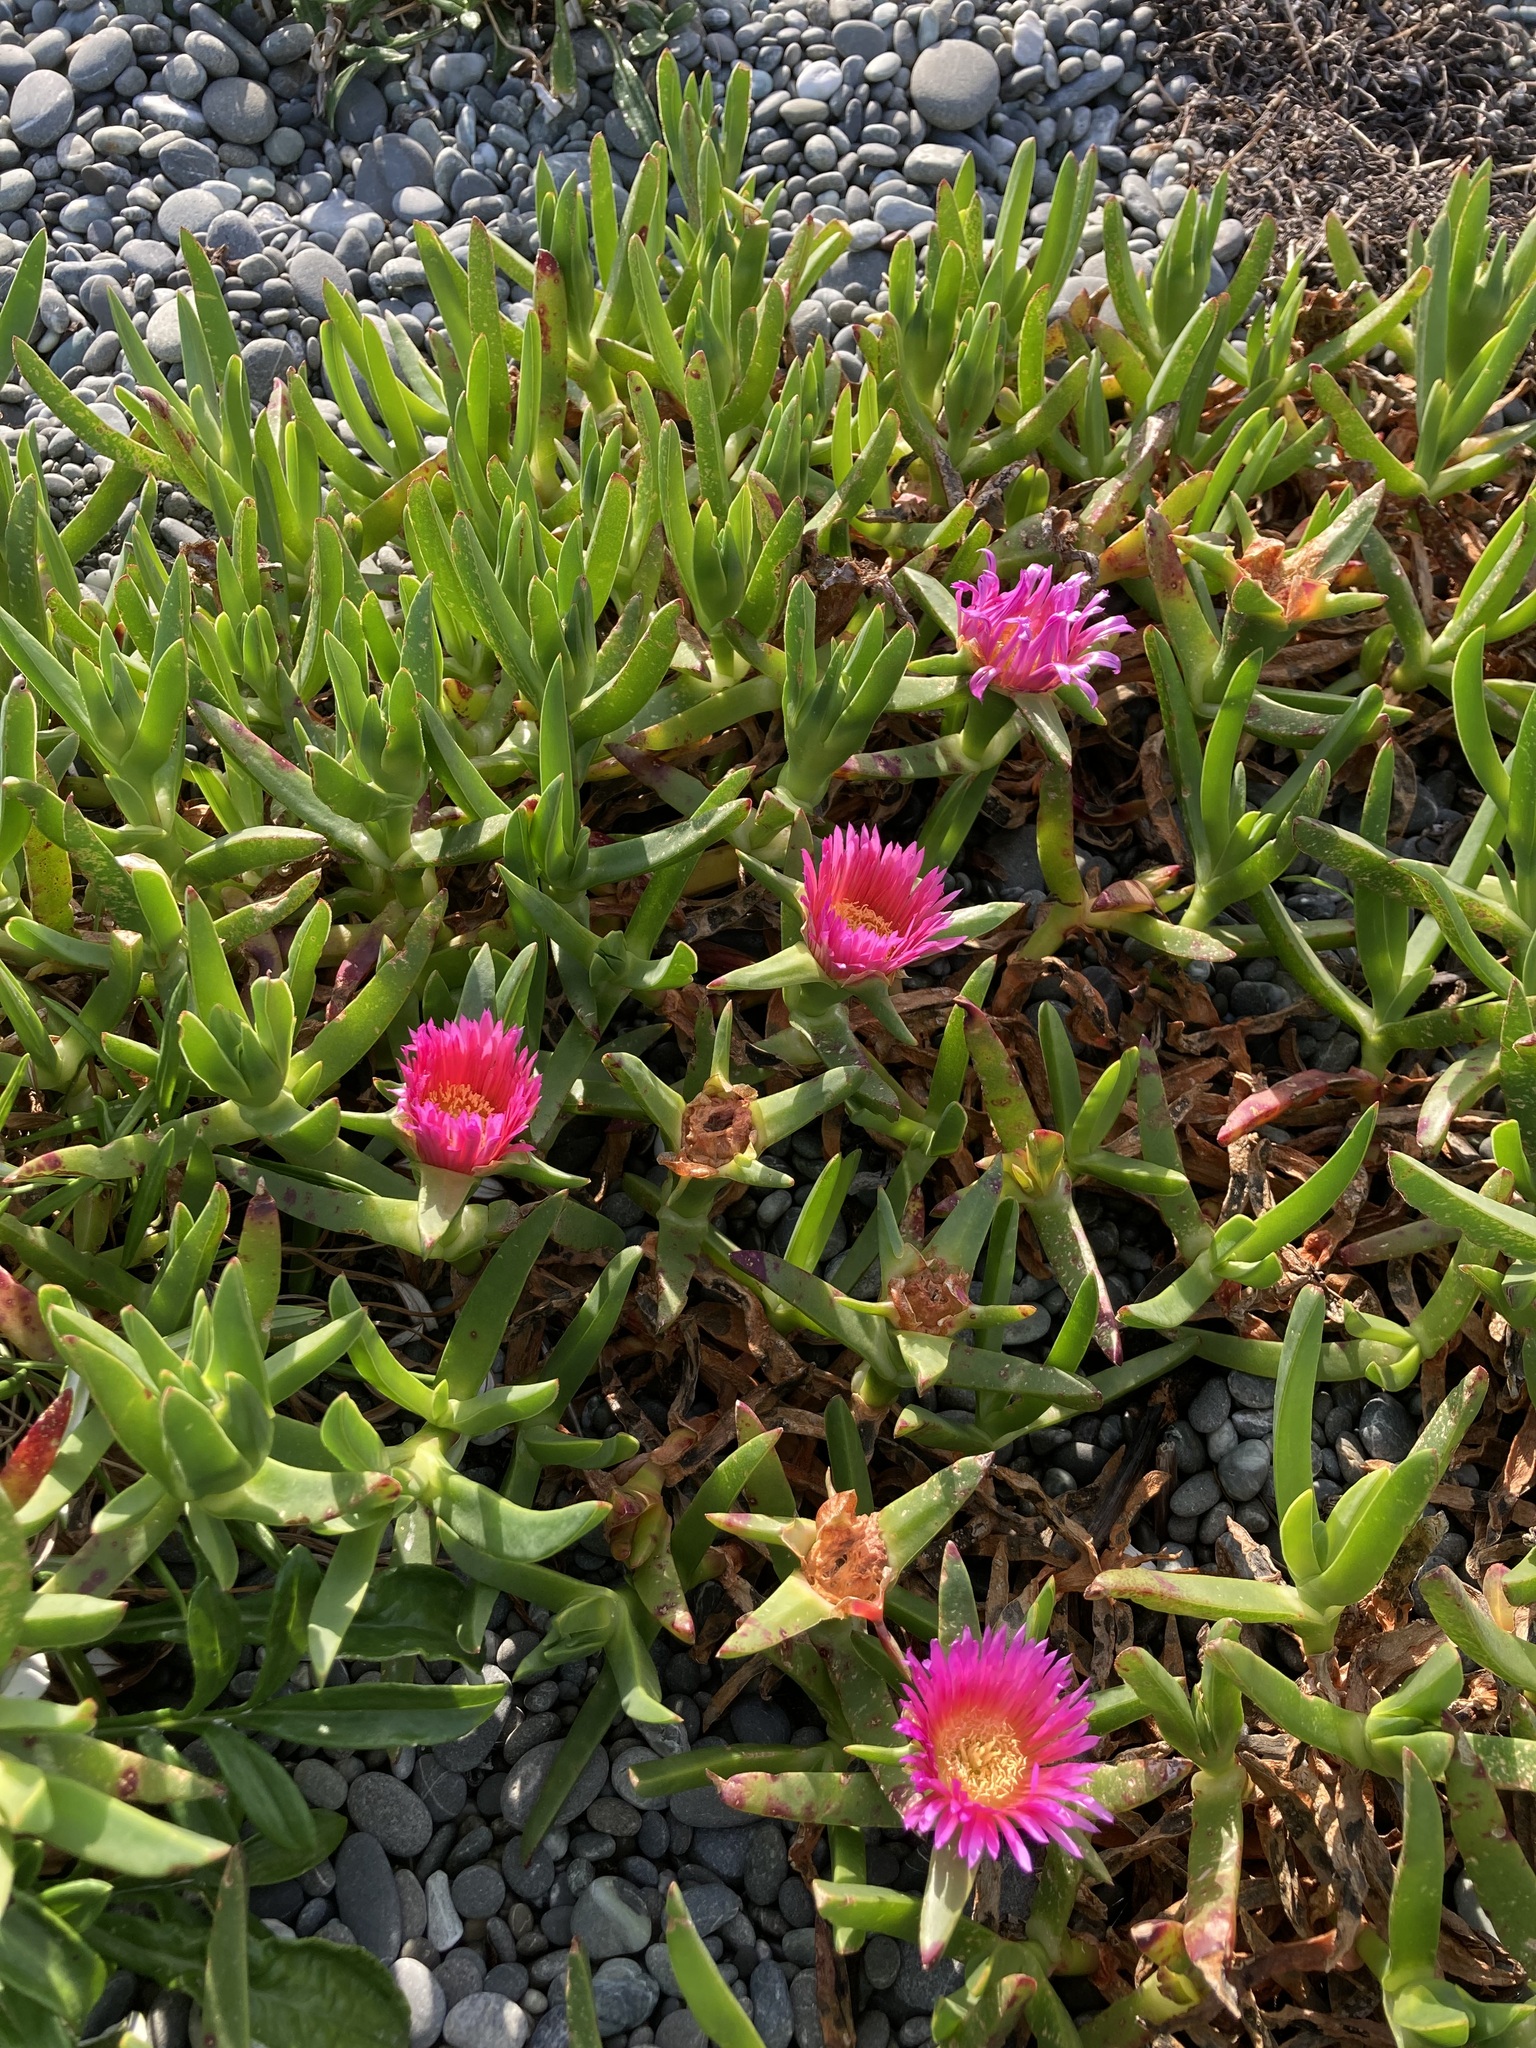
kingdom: Plantae
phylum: Tracheophyta
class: Magnoliopsida
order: Caryophyllales
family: Aizoaceae
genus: Carpobrotus
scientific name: Carpobrotus chilensis
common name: Sea fig
